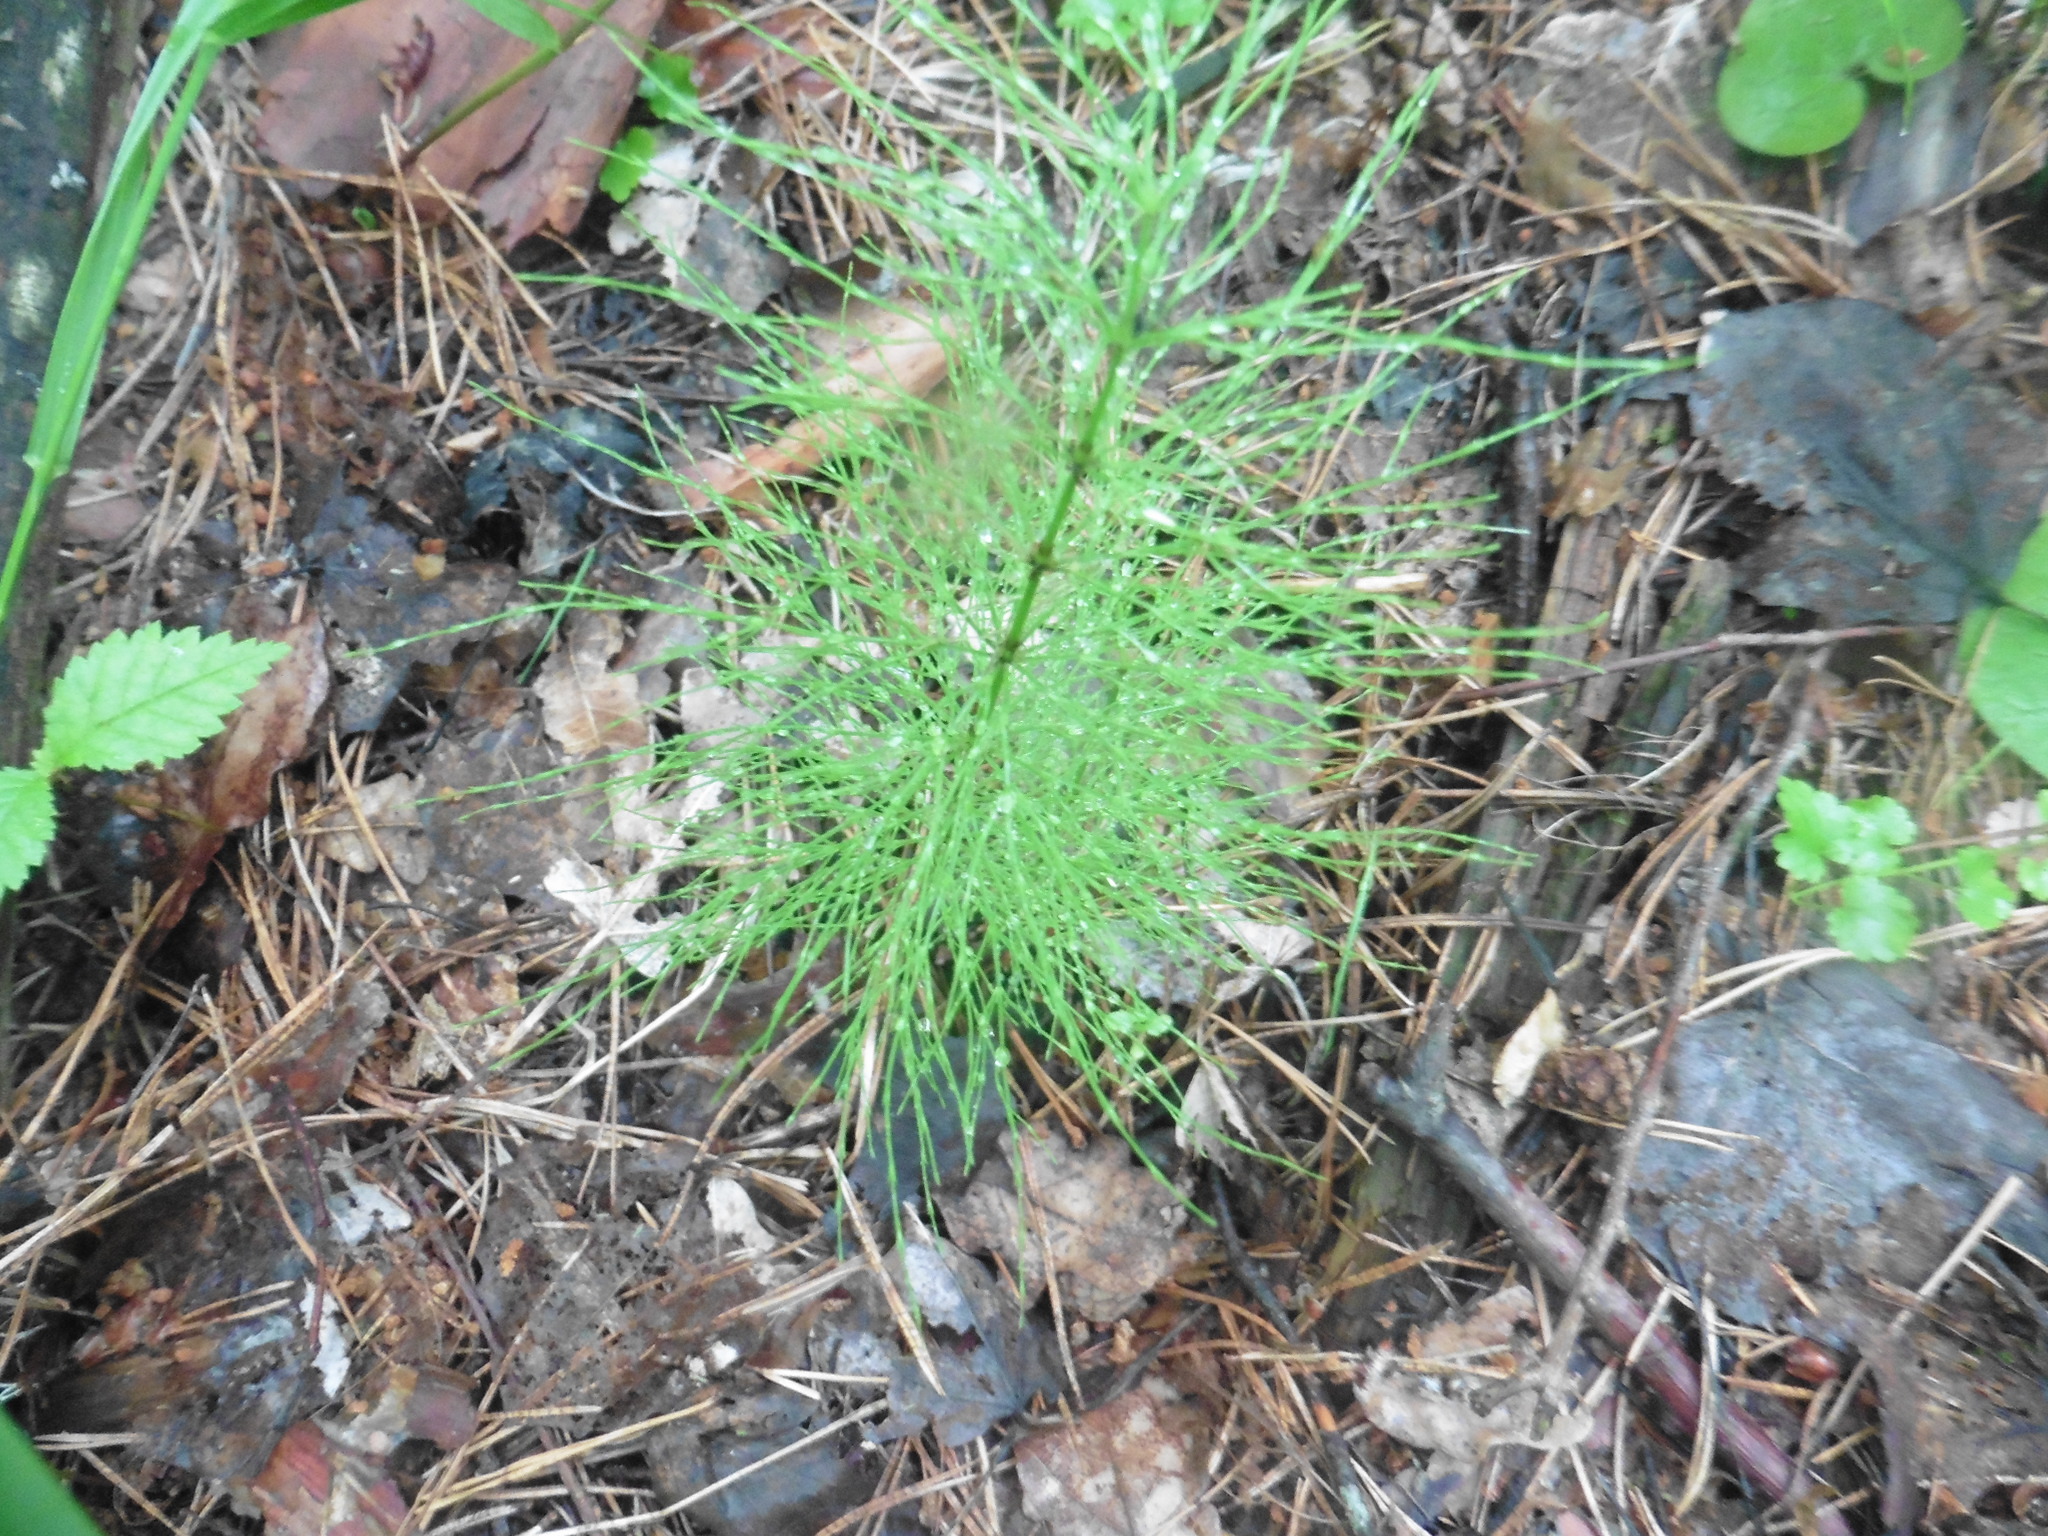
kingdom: Plantae
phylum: Tracheophyta
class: Polypodiopsida
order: Equisetales
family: Equisetaceae
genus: Equisetum
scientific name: Equisetum sylvaticum
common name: Wood horsetail
